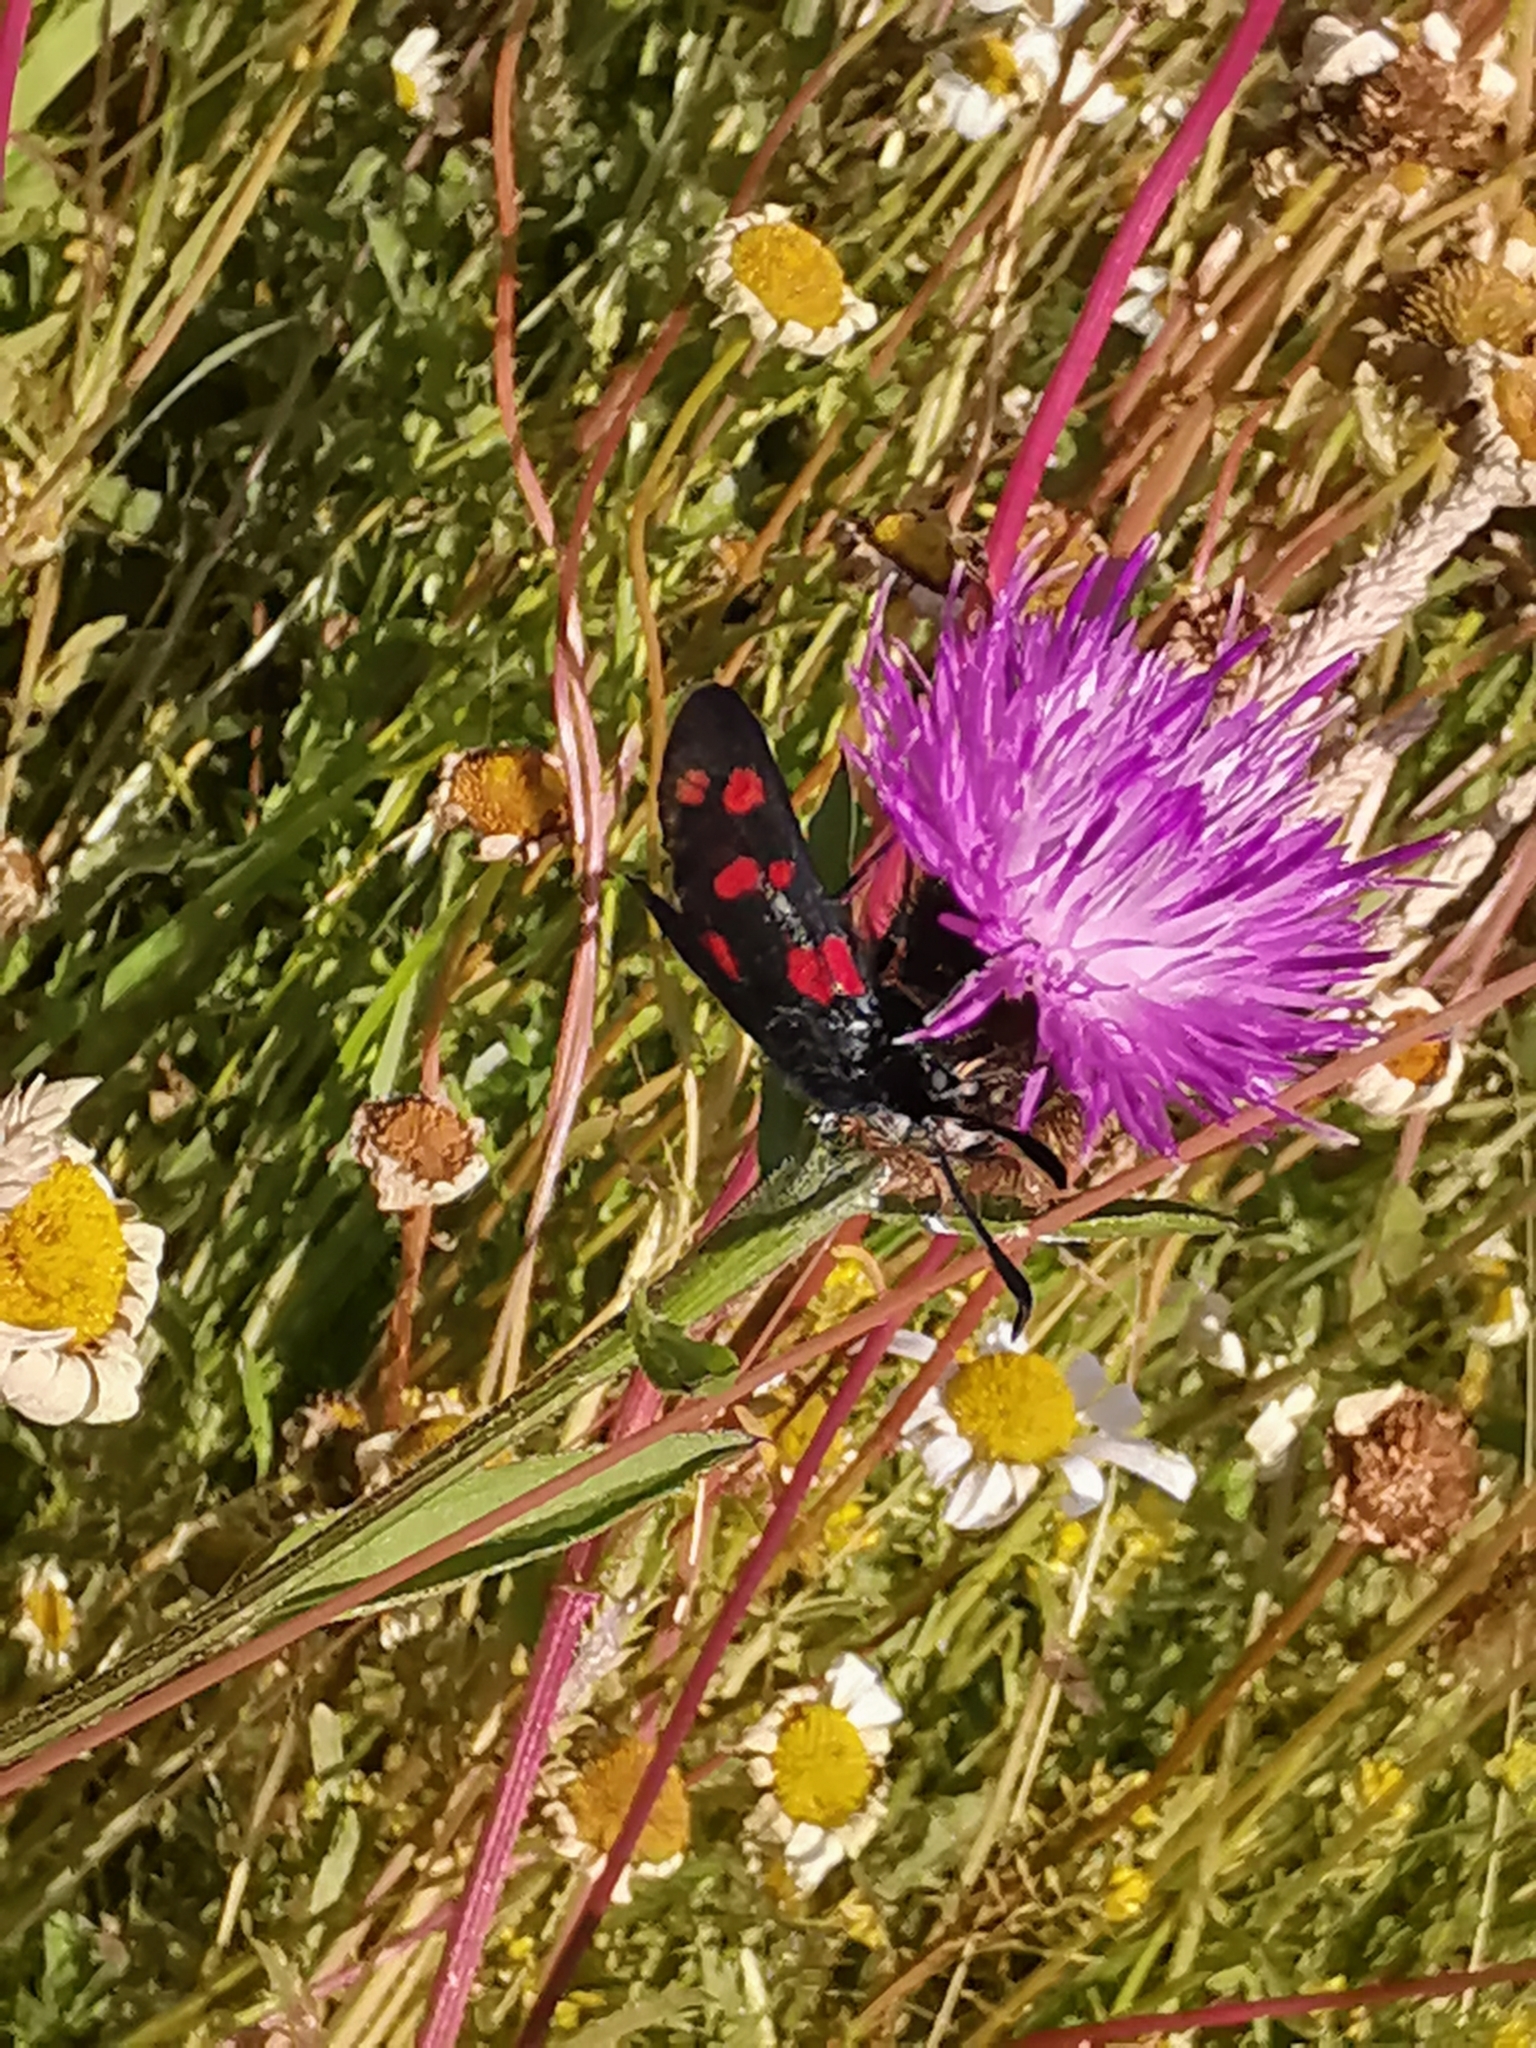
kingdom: Animalia
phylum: Arthropoda
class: Insecta
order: Lepidoptera
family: Zygaenidae
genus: Zygaena
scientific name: Zygaena filipendulae
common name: Six-spot burnet
